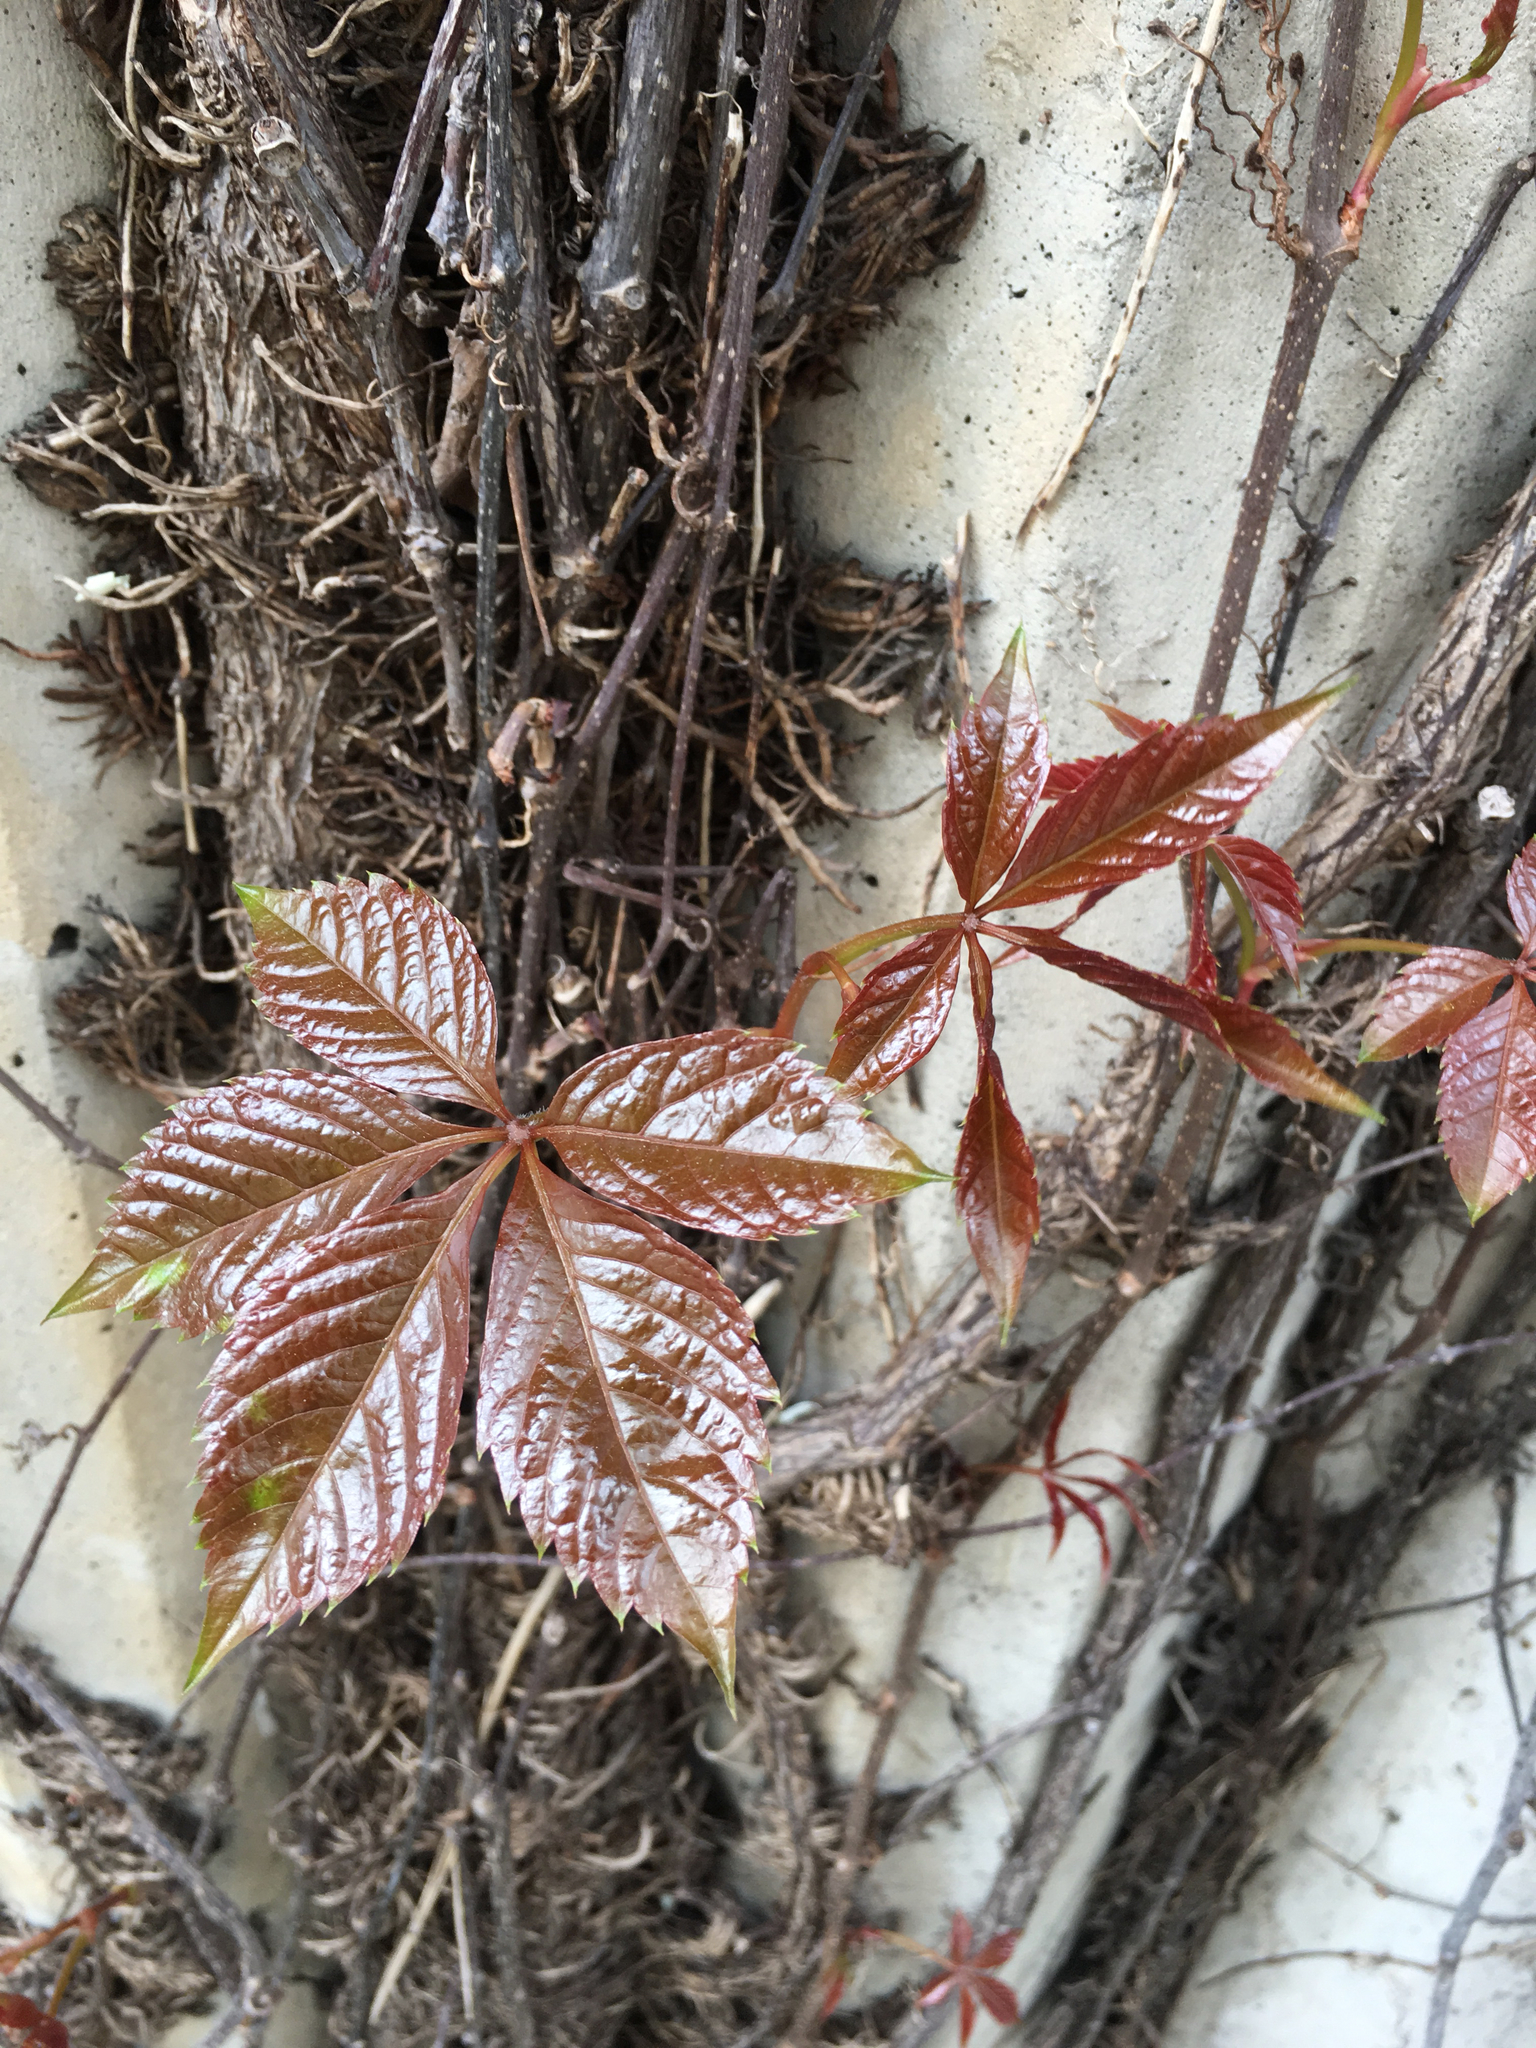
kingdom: Plantae
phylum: Tracheophyta
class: Magnoliopsida
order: Vitales
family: Vitaceae
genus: Parthenocissus
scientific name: Parthenocissus quinquefolia
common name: Virginia-creeper
